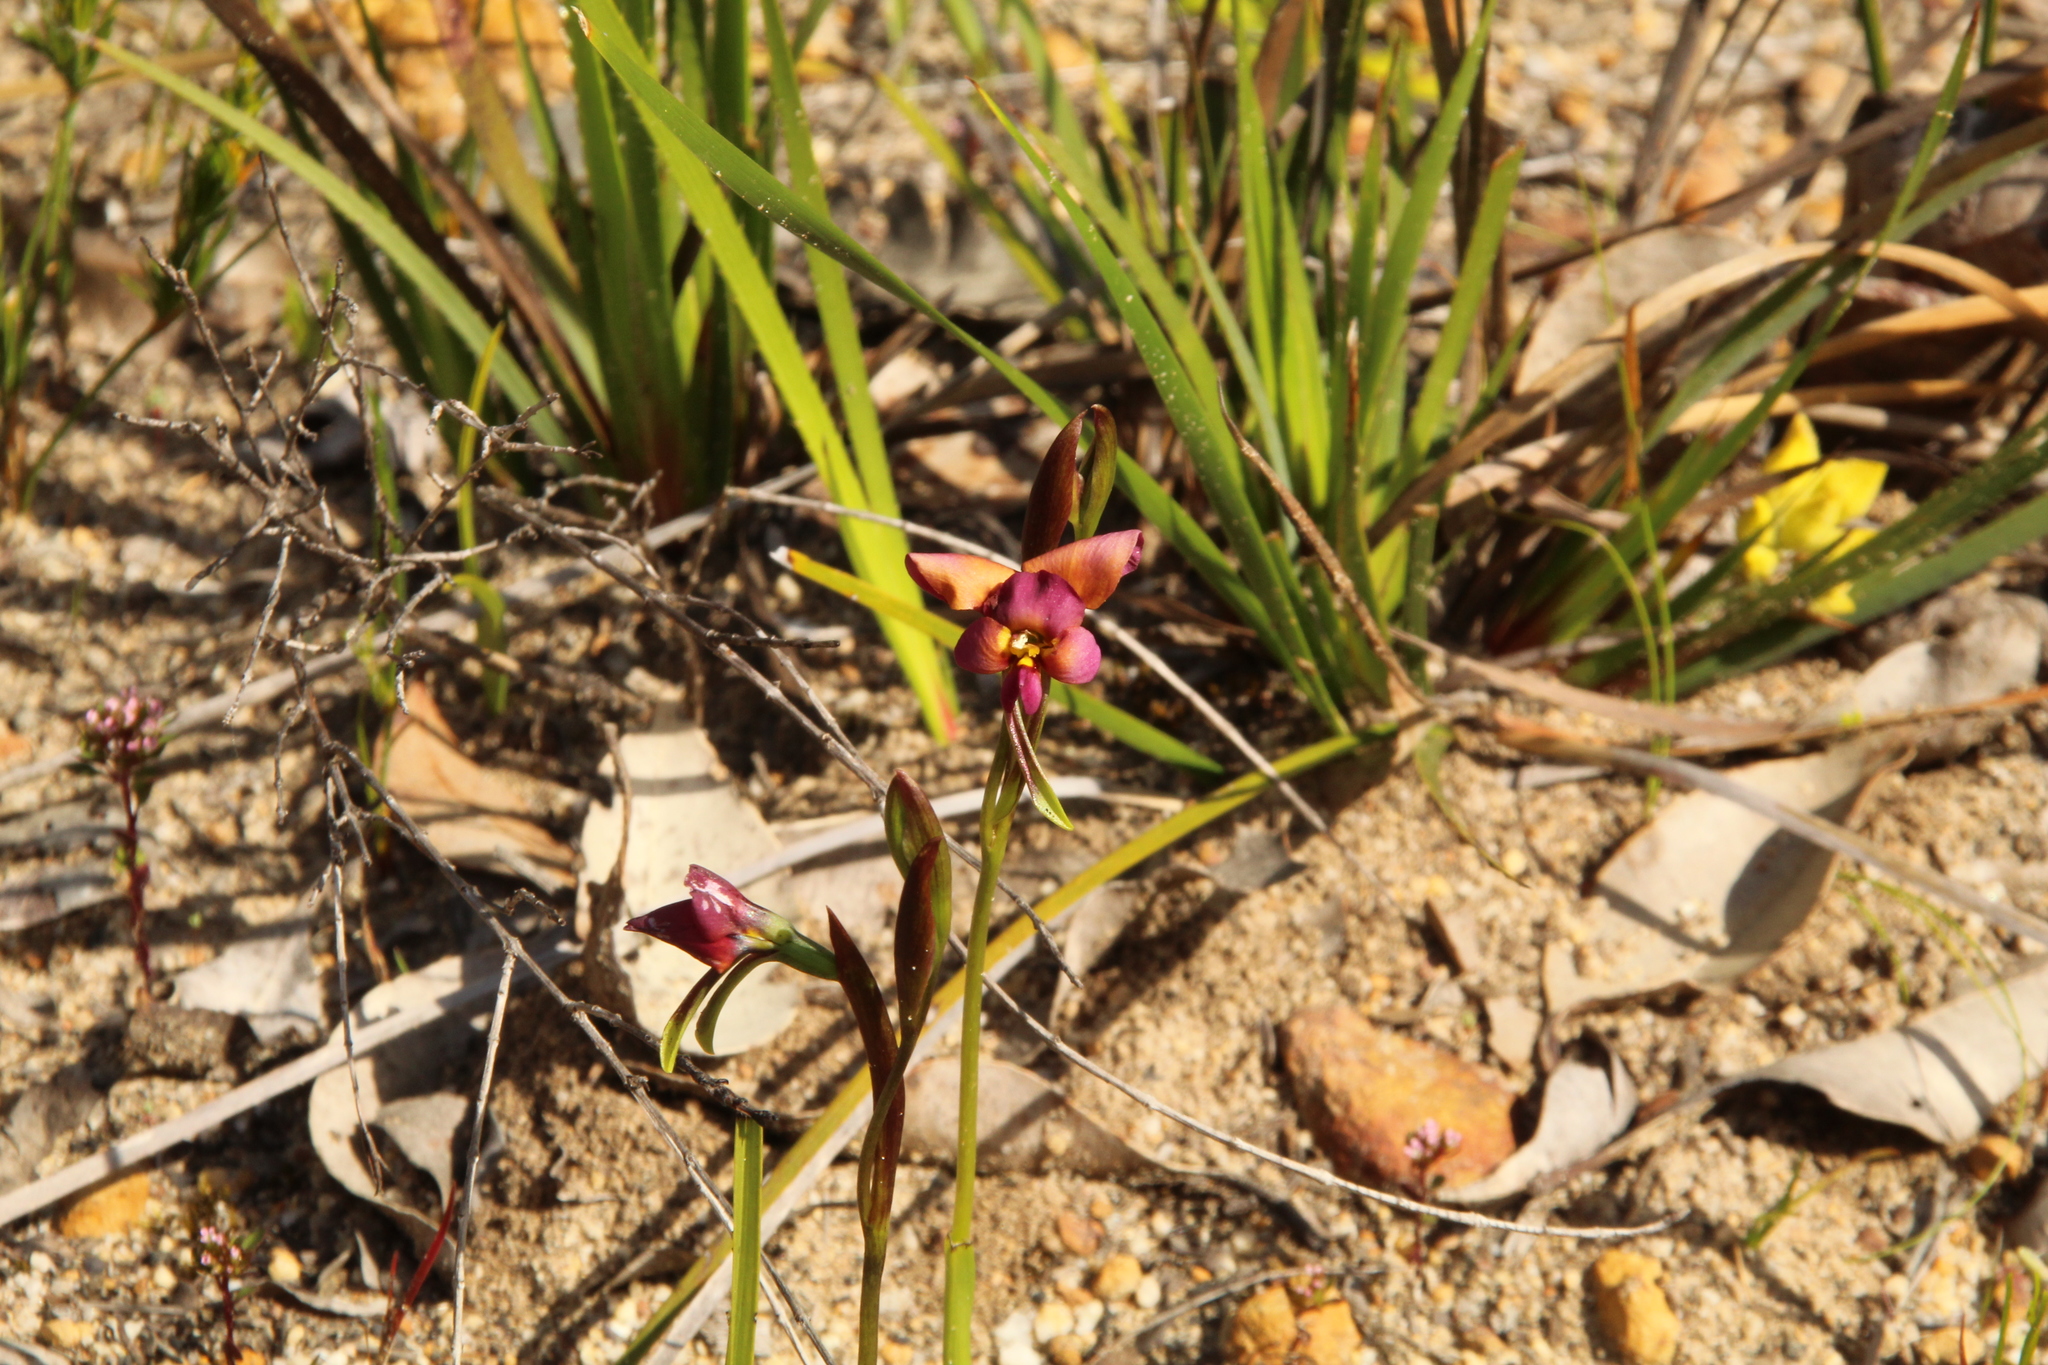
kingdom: Plantae
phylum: Tracheophyta
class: Liliopsida
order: Asparagales
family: Orchidaceae
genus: Diuris
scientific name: Diuris longifolia
